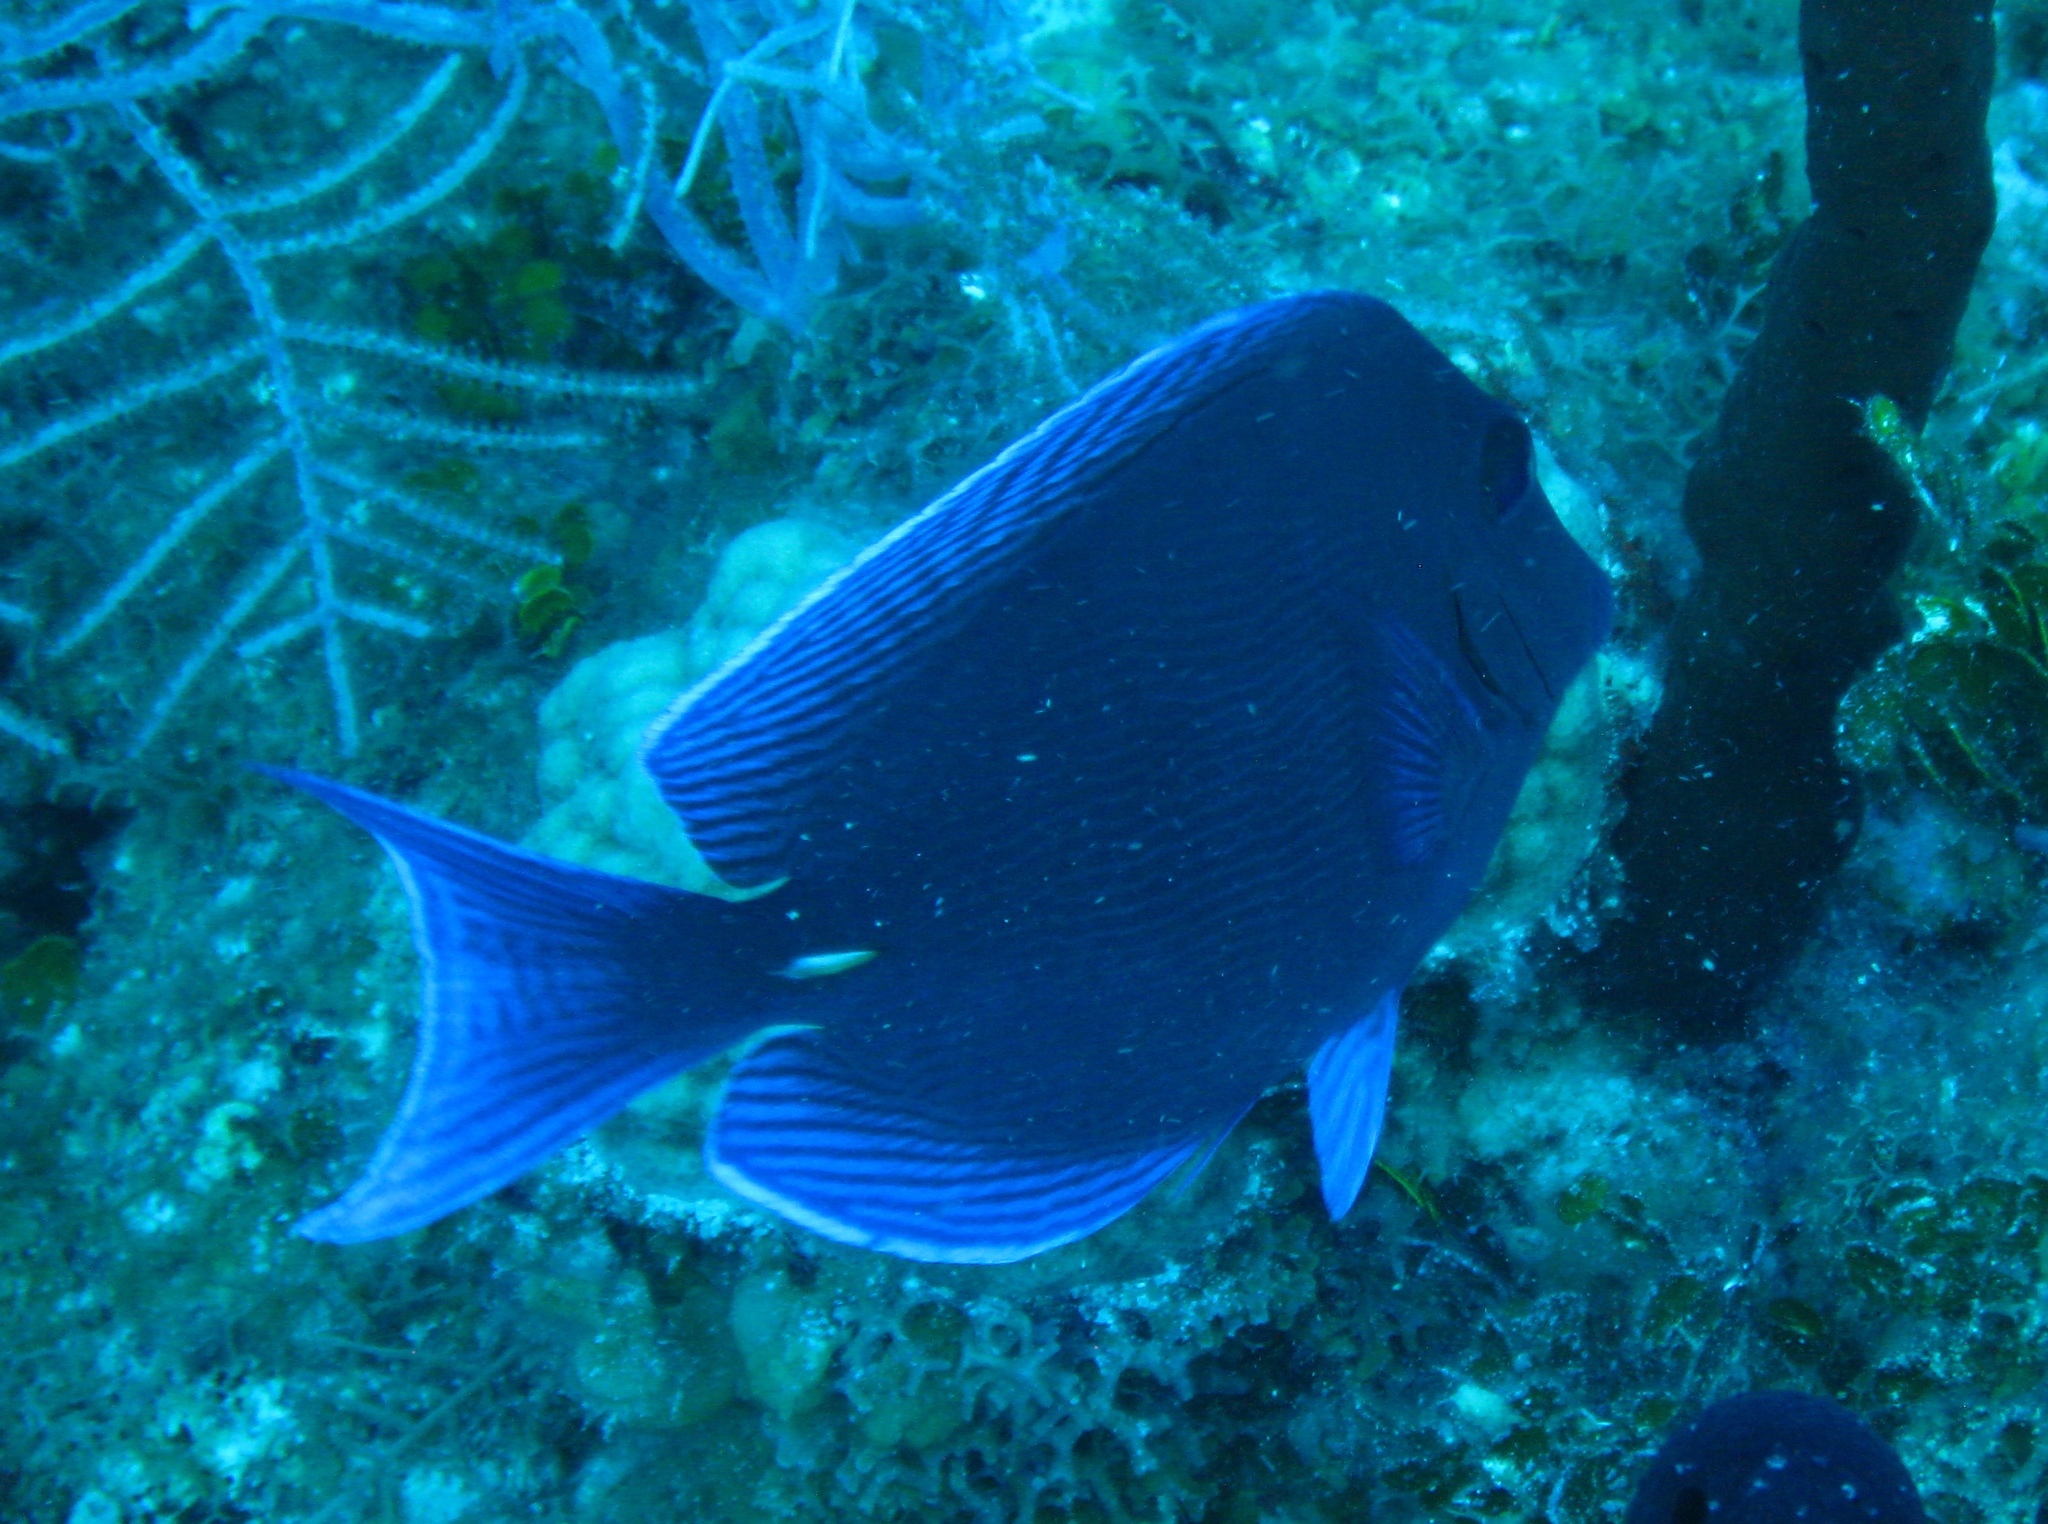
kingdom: Animalia
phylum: Chordata
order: Perciformes
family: Acanthuridae
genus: Acanthurus
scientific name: Acanthurus coeruleus
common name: Blue tang
